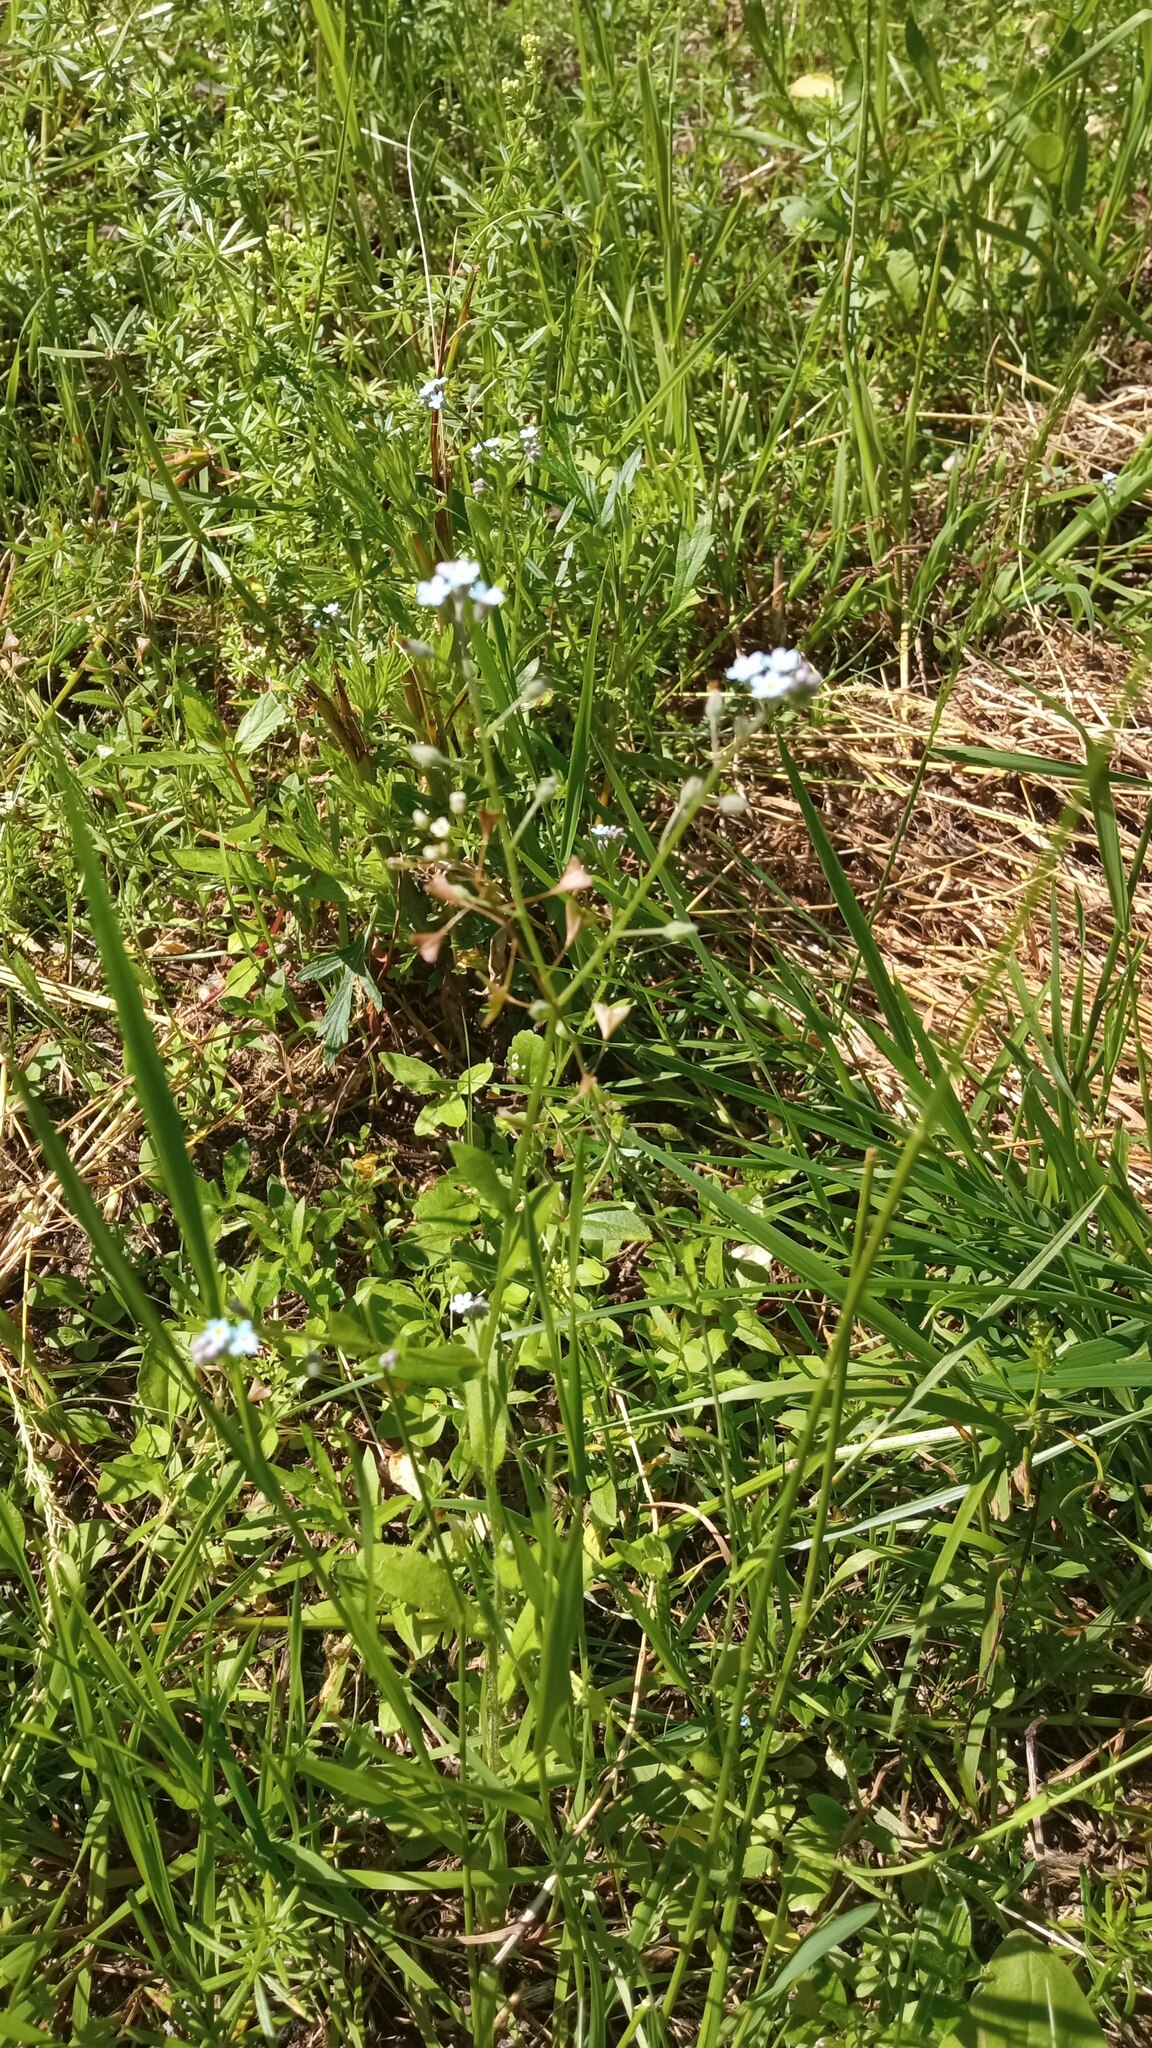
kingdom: Plantae
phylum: Tracheophyta
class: Magnoliopsida
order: Boraginales
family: Boraginaceae
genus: Myosotis
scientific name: Myosotis arvensis
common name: Field forget-me-not
